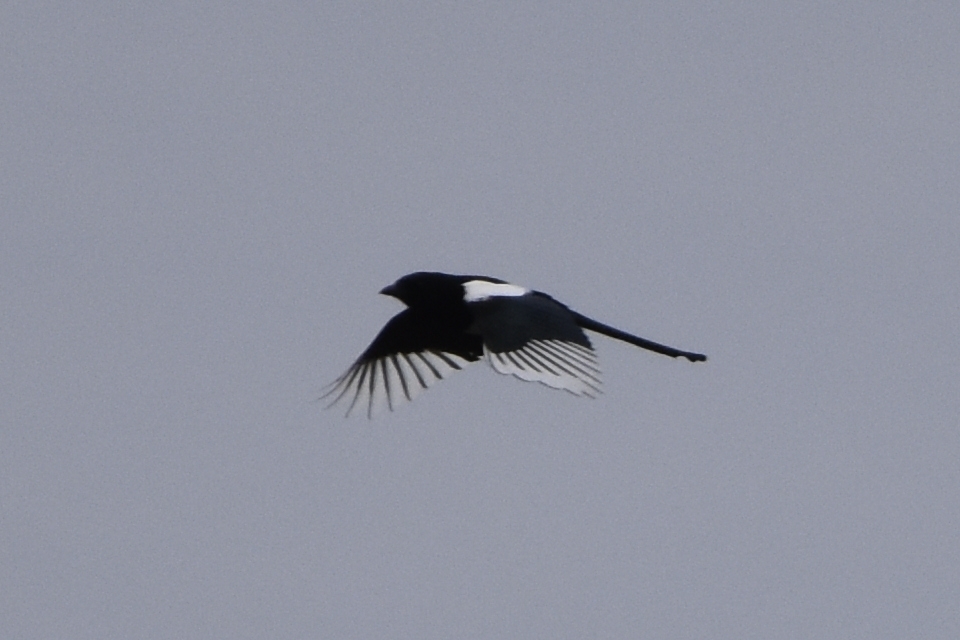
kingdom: Animalia
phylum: Chordata
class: Aves
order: Passeriformes
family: Corvidae
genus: Pica
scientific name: Pica pica
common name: Eurasian magpie
